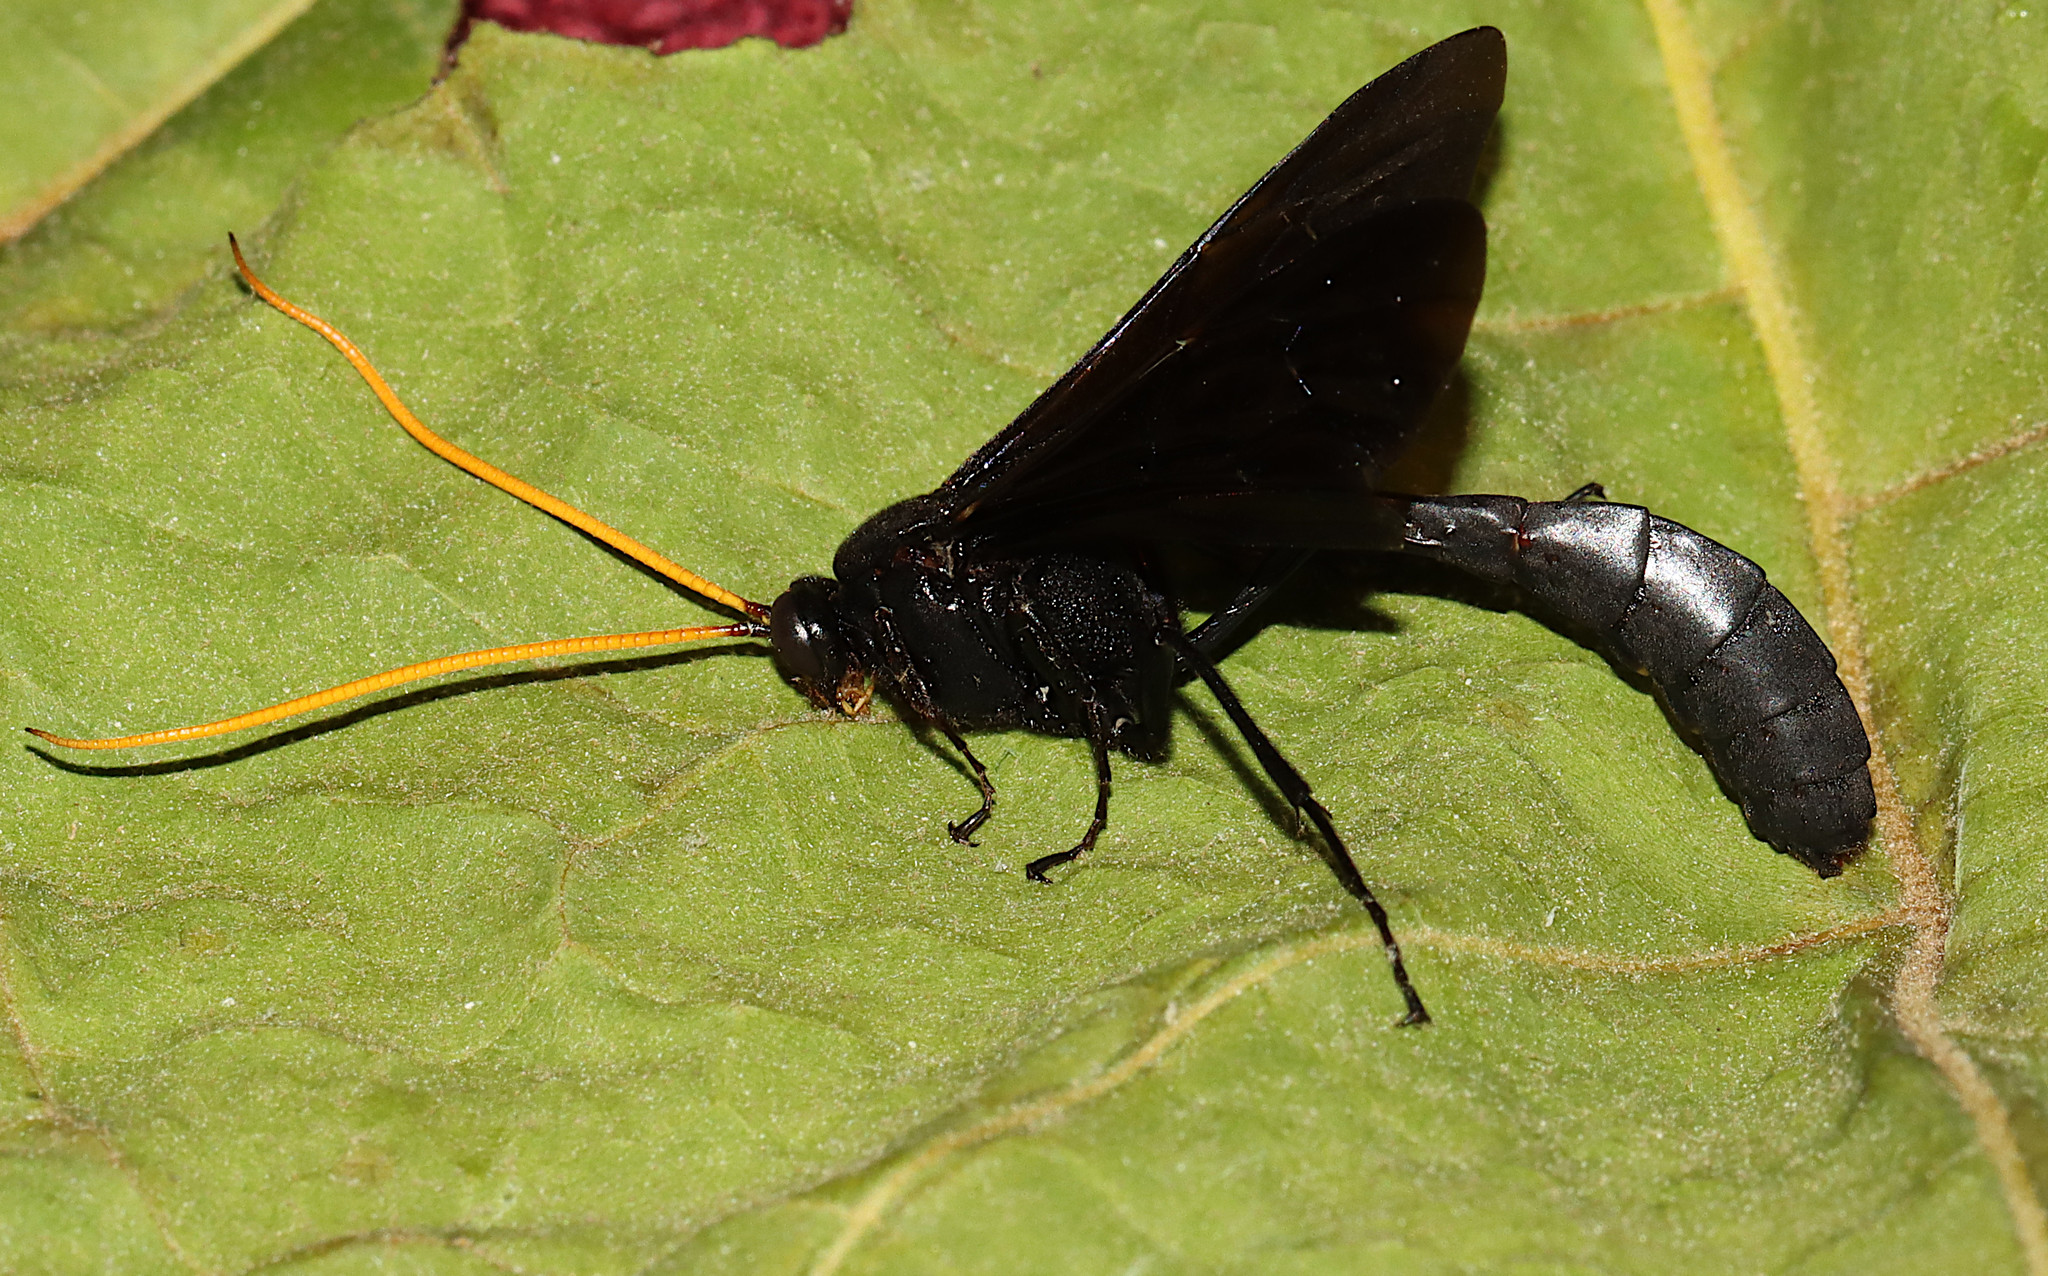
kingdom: Animalia
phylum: Arthropoda
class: Insecta
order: Hymenoptera
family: Ichneumonidae
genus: Thyreodon
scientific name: Thyreodon atricolor
